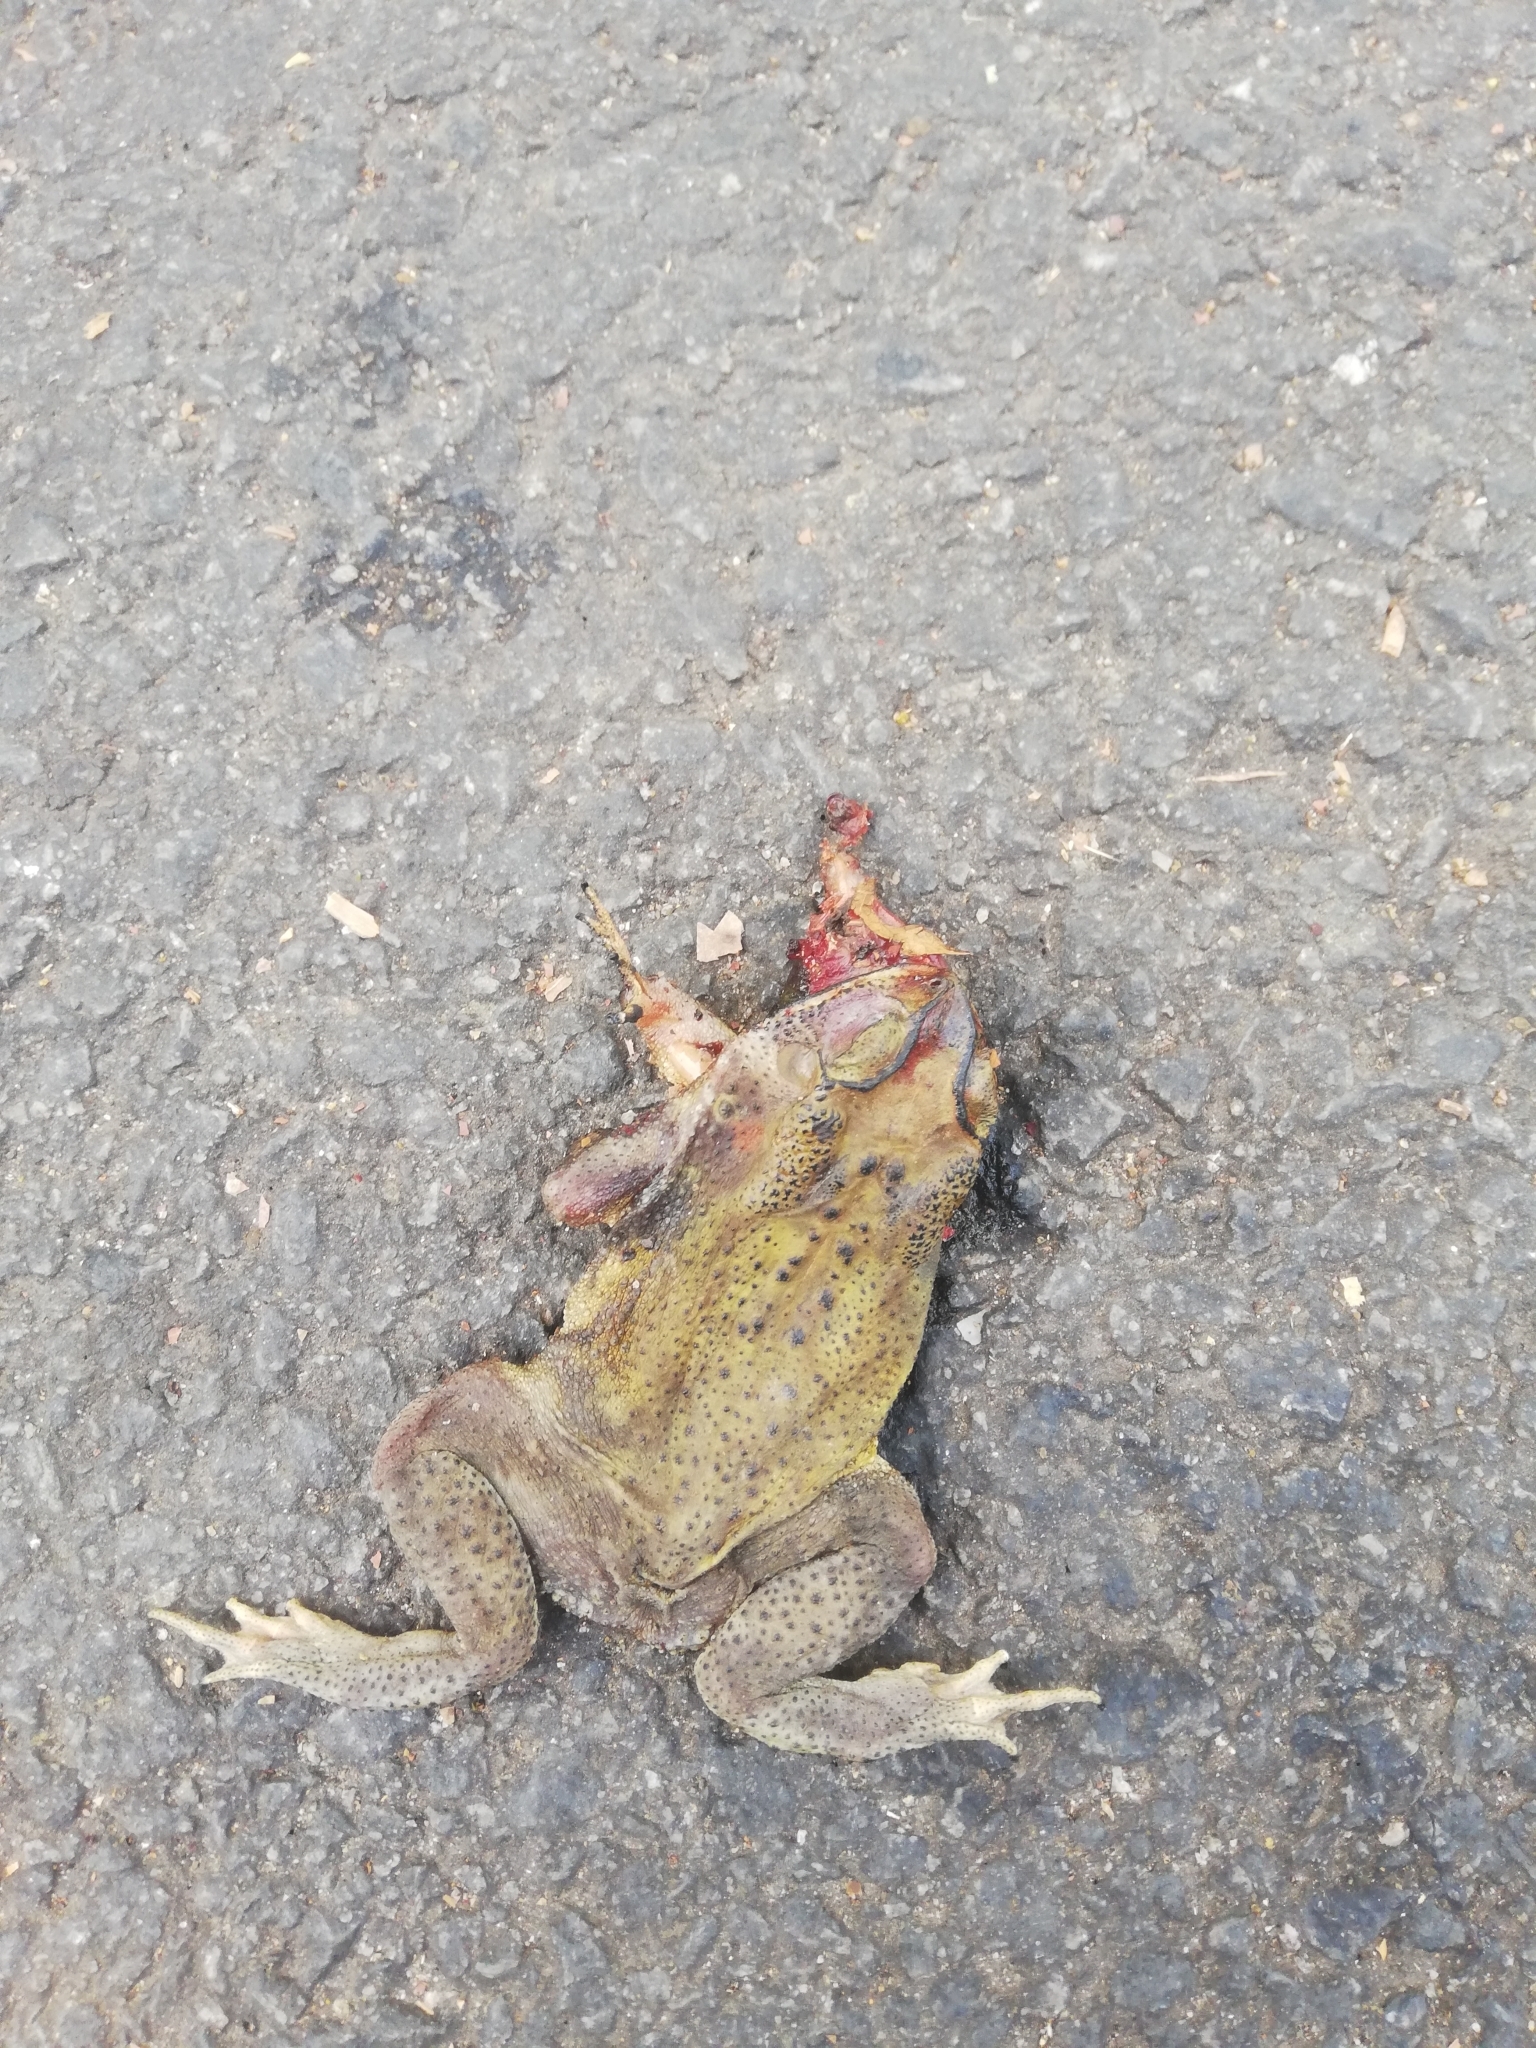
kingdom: Animalia
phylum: Chordata
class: Amphibia
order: Anura
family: Bufonidae
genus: Duttaphrynus
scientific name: Duttaphrynus melanostictus
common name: Common sunda toad
